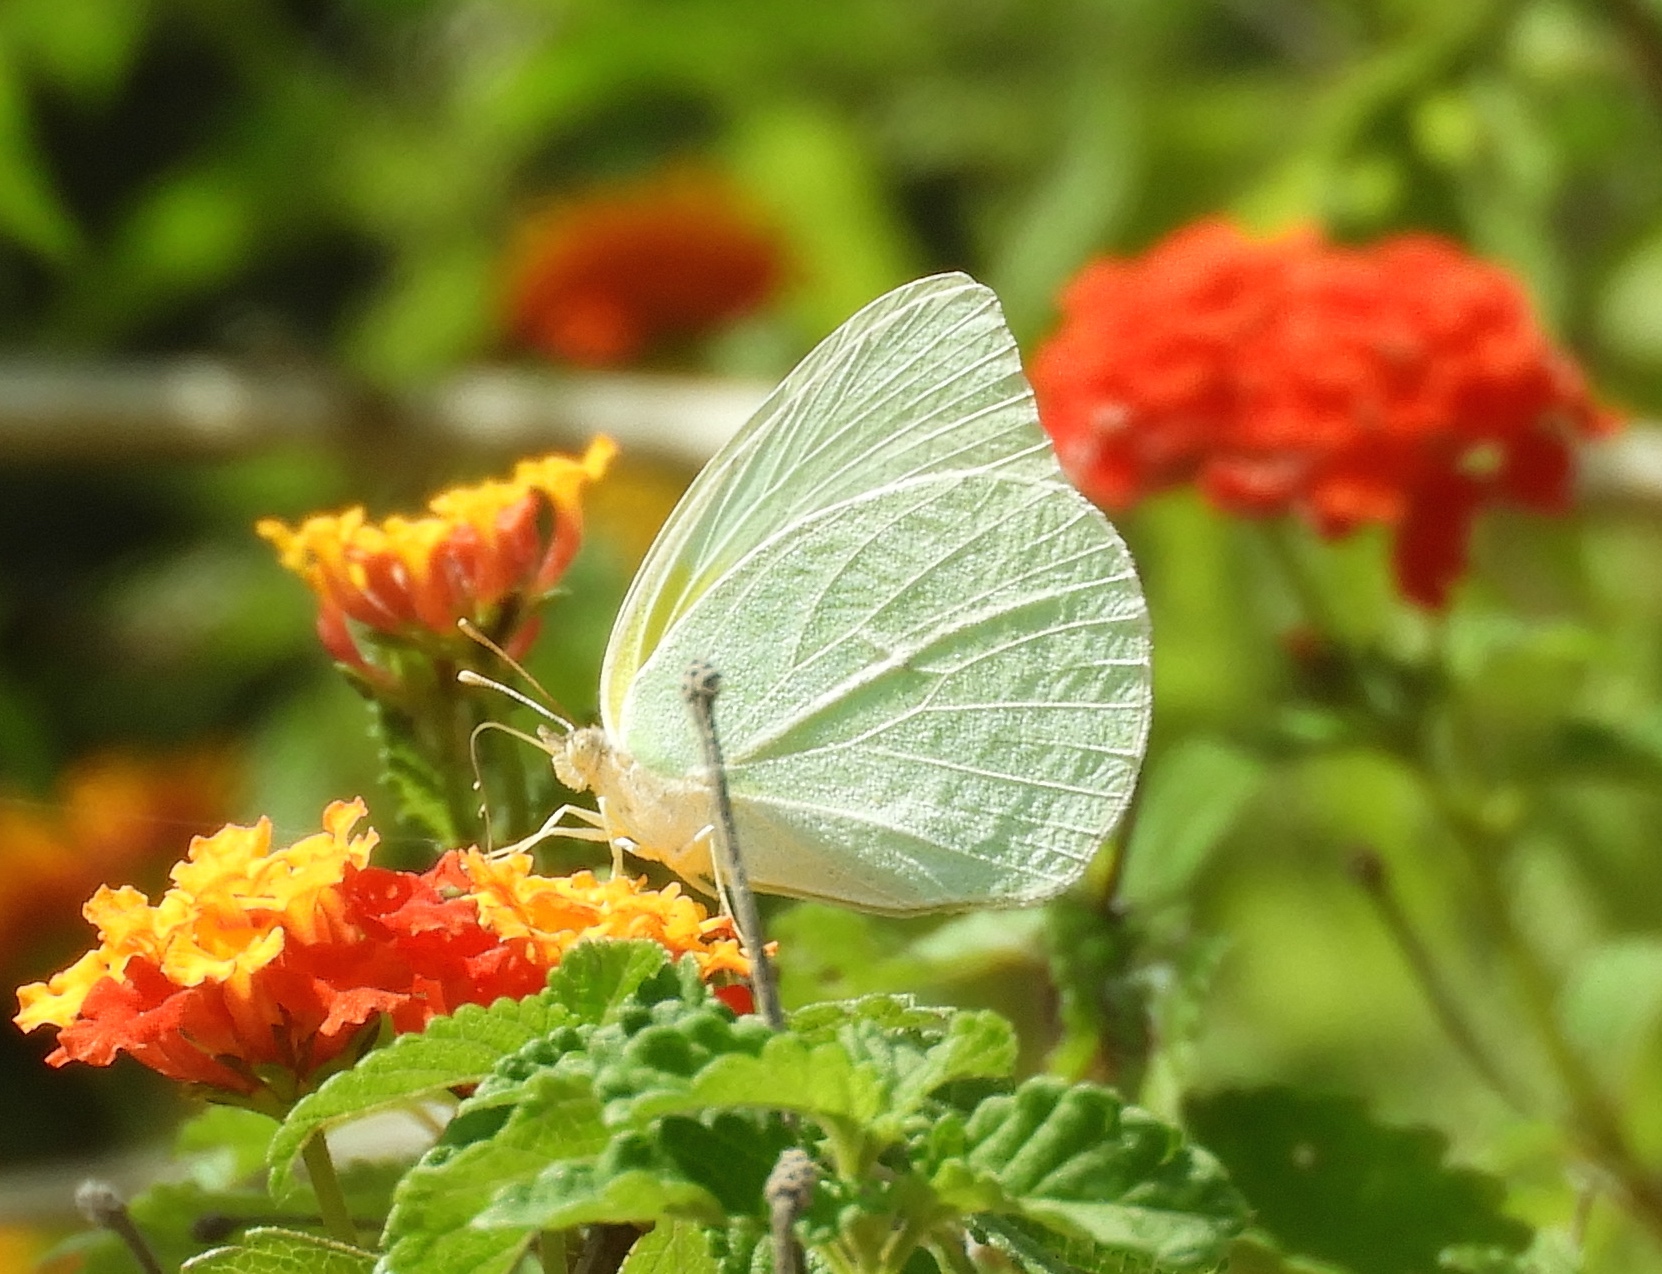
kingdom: Animalia
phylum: Arthropoda
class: Insecta
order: Lepidoptera
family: Pieridae
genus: Kricogonia
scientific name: Kricogonia lyside
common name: Guayacan sulphur,
